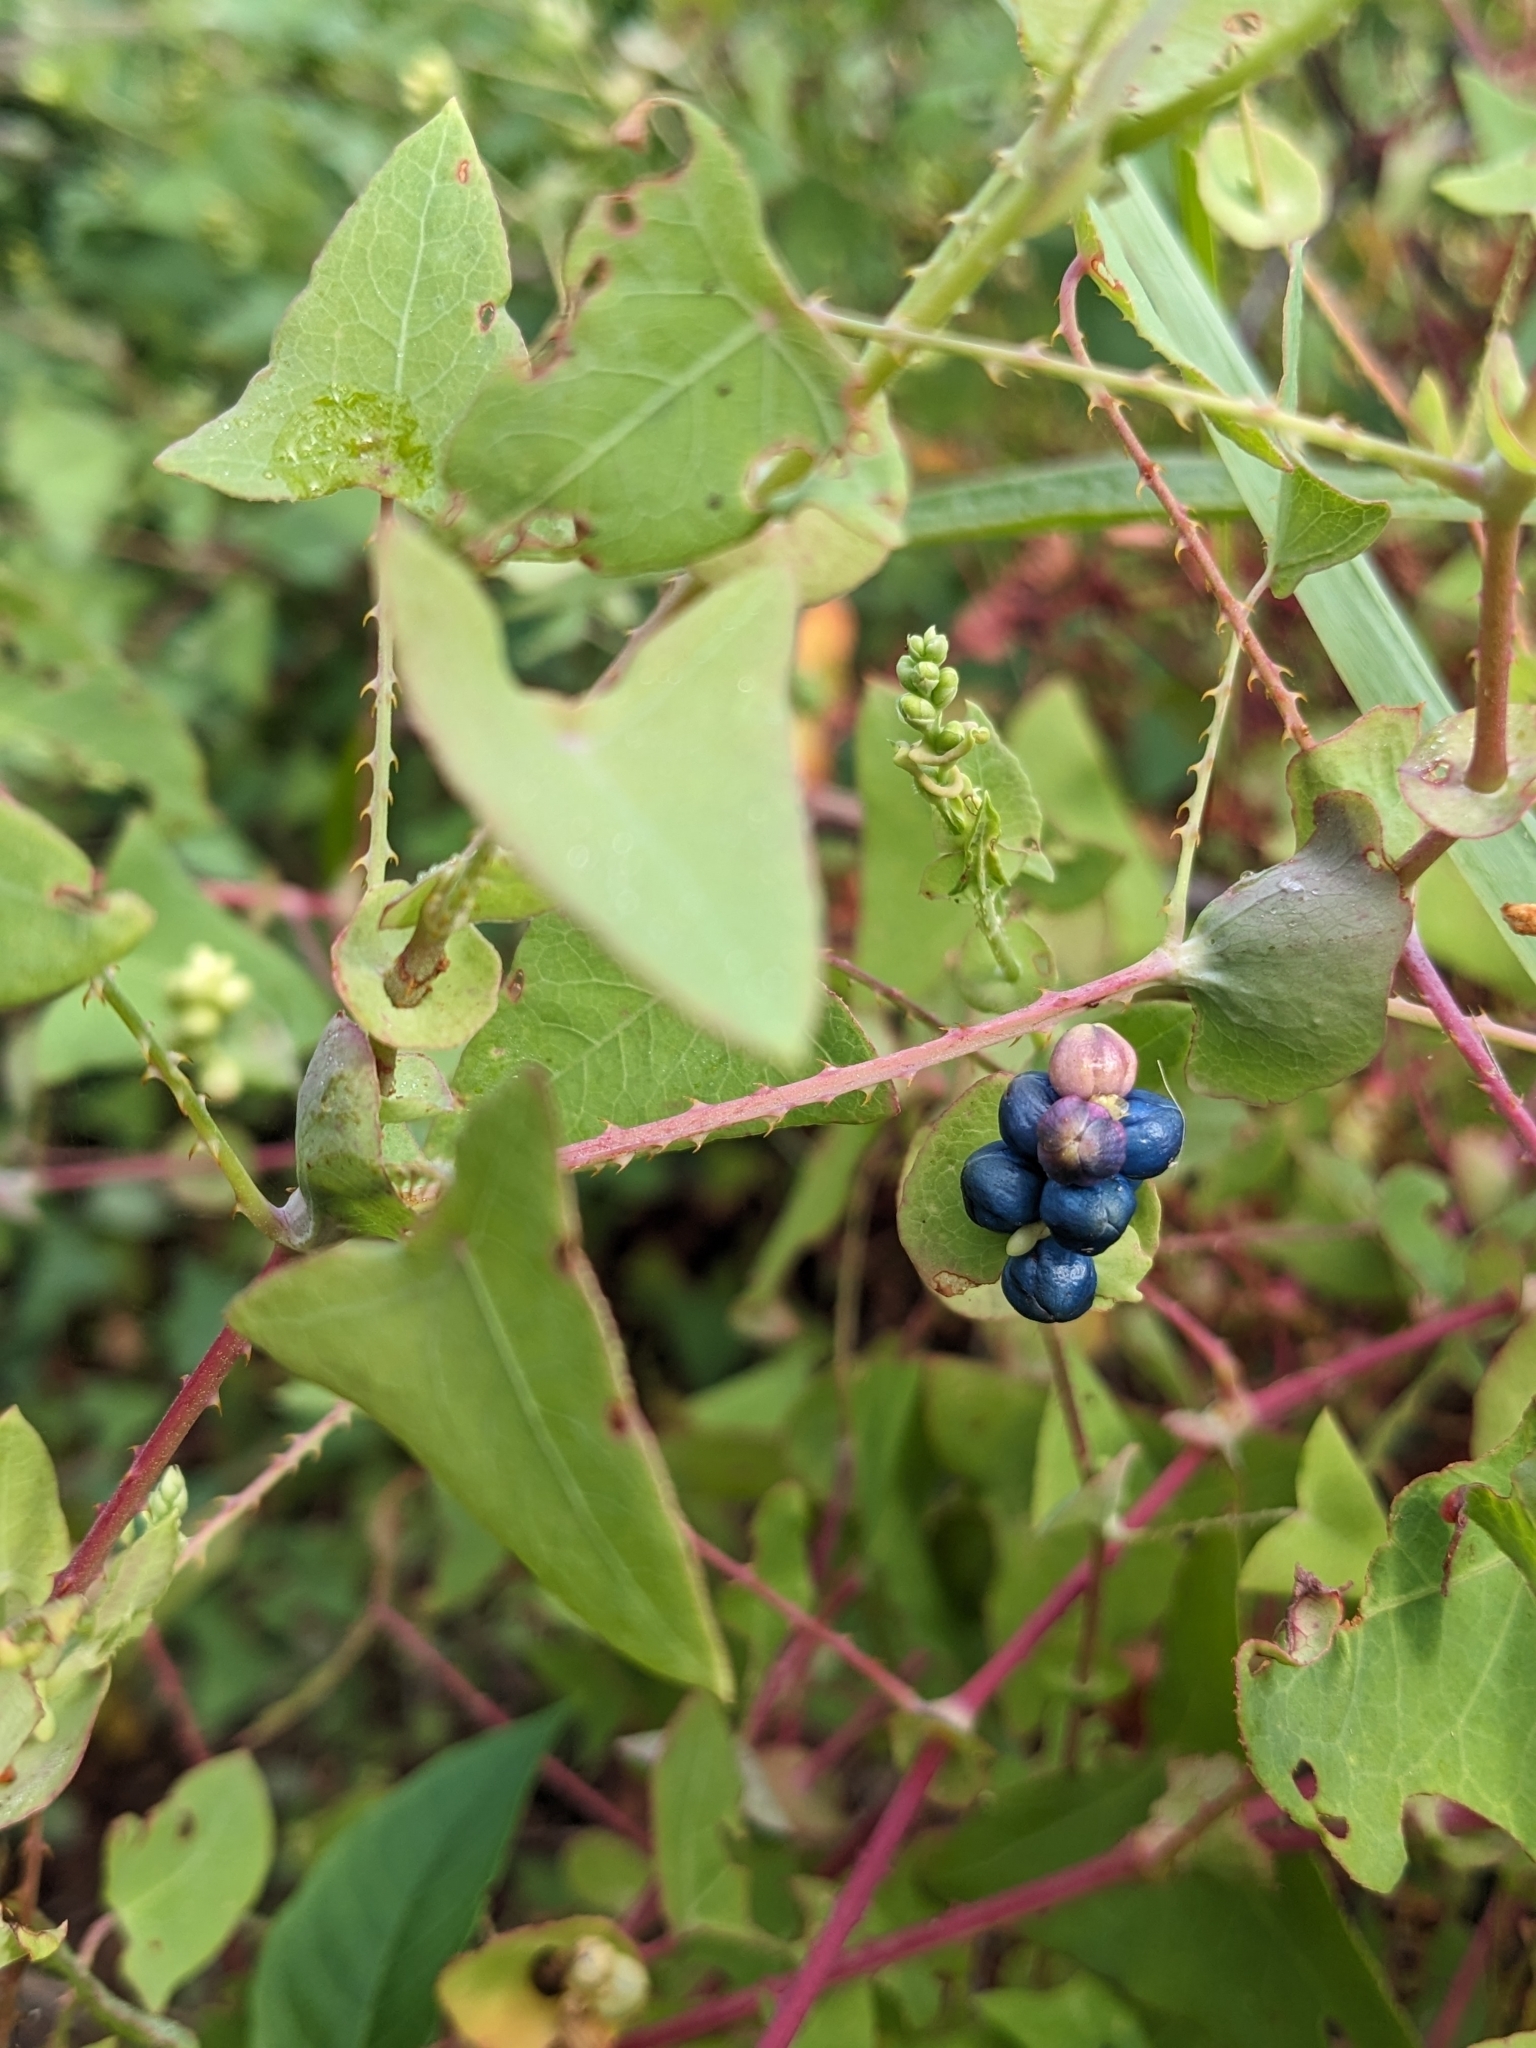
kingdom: Plantae
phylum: Tracheophyta
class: Magnoliopsida
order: Caryophyllales
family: Polygonaceae
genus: Persicaria
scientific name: Persicaria perfoliata
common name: Asiatic tearthumb
